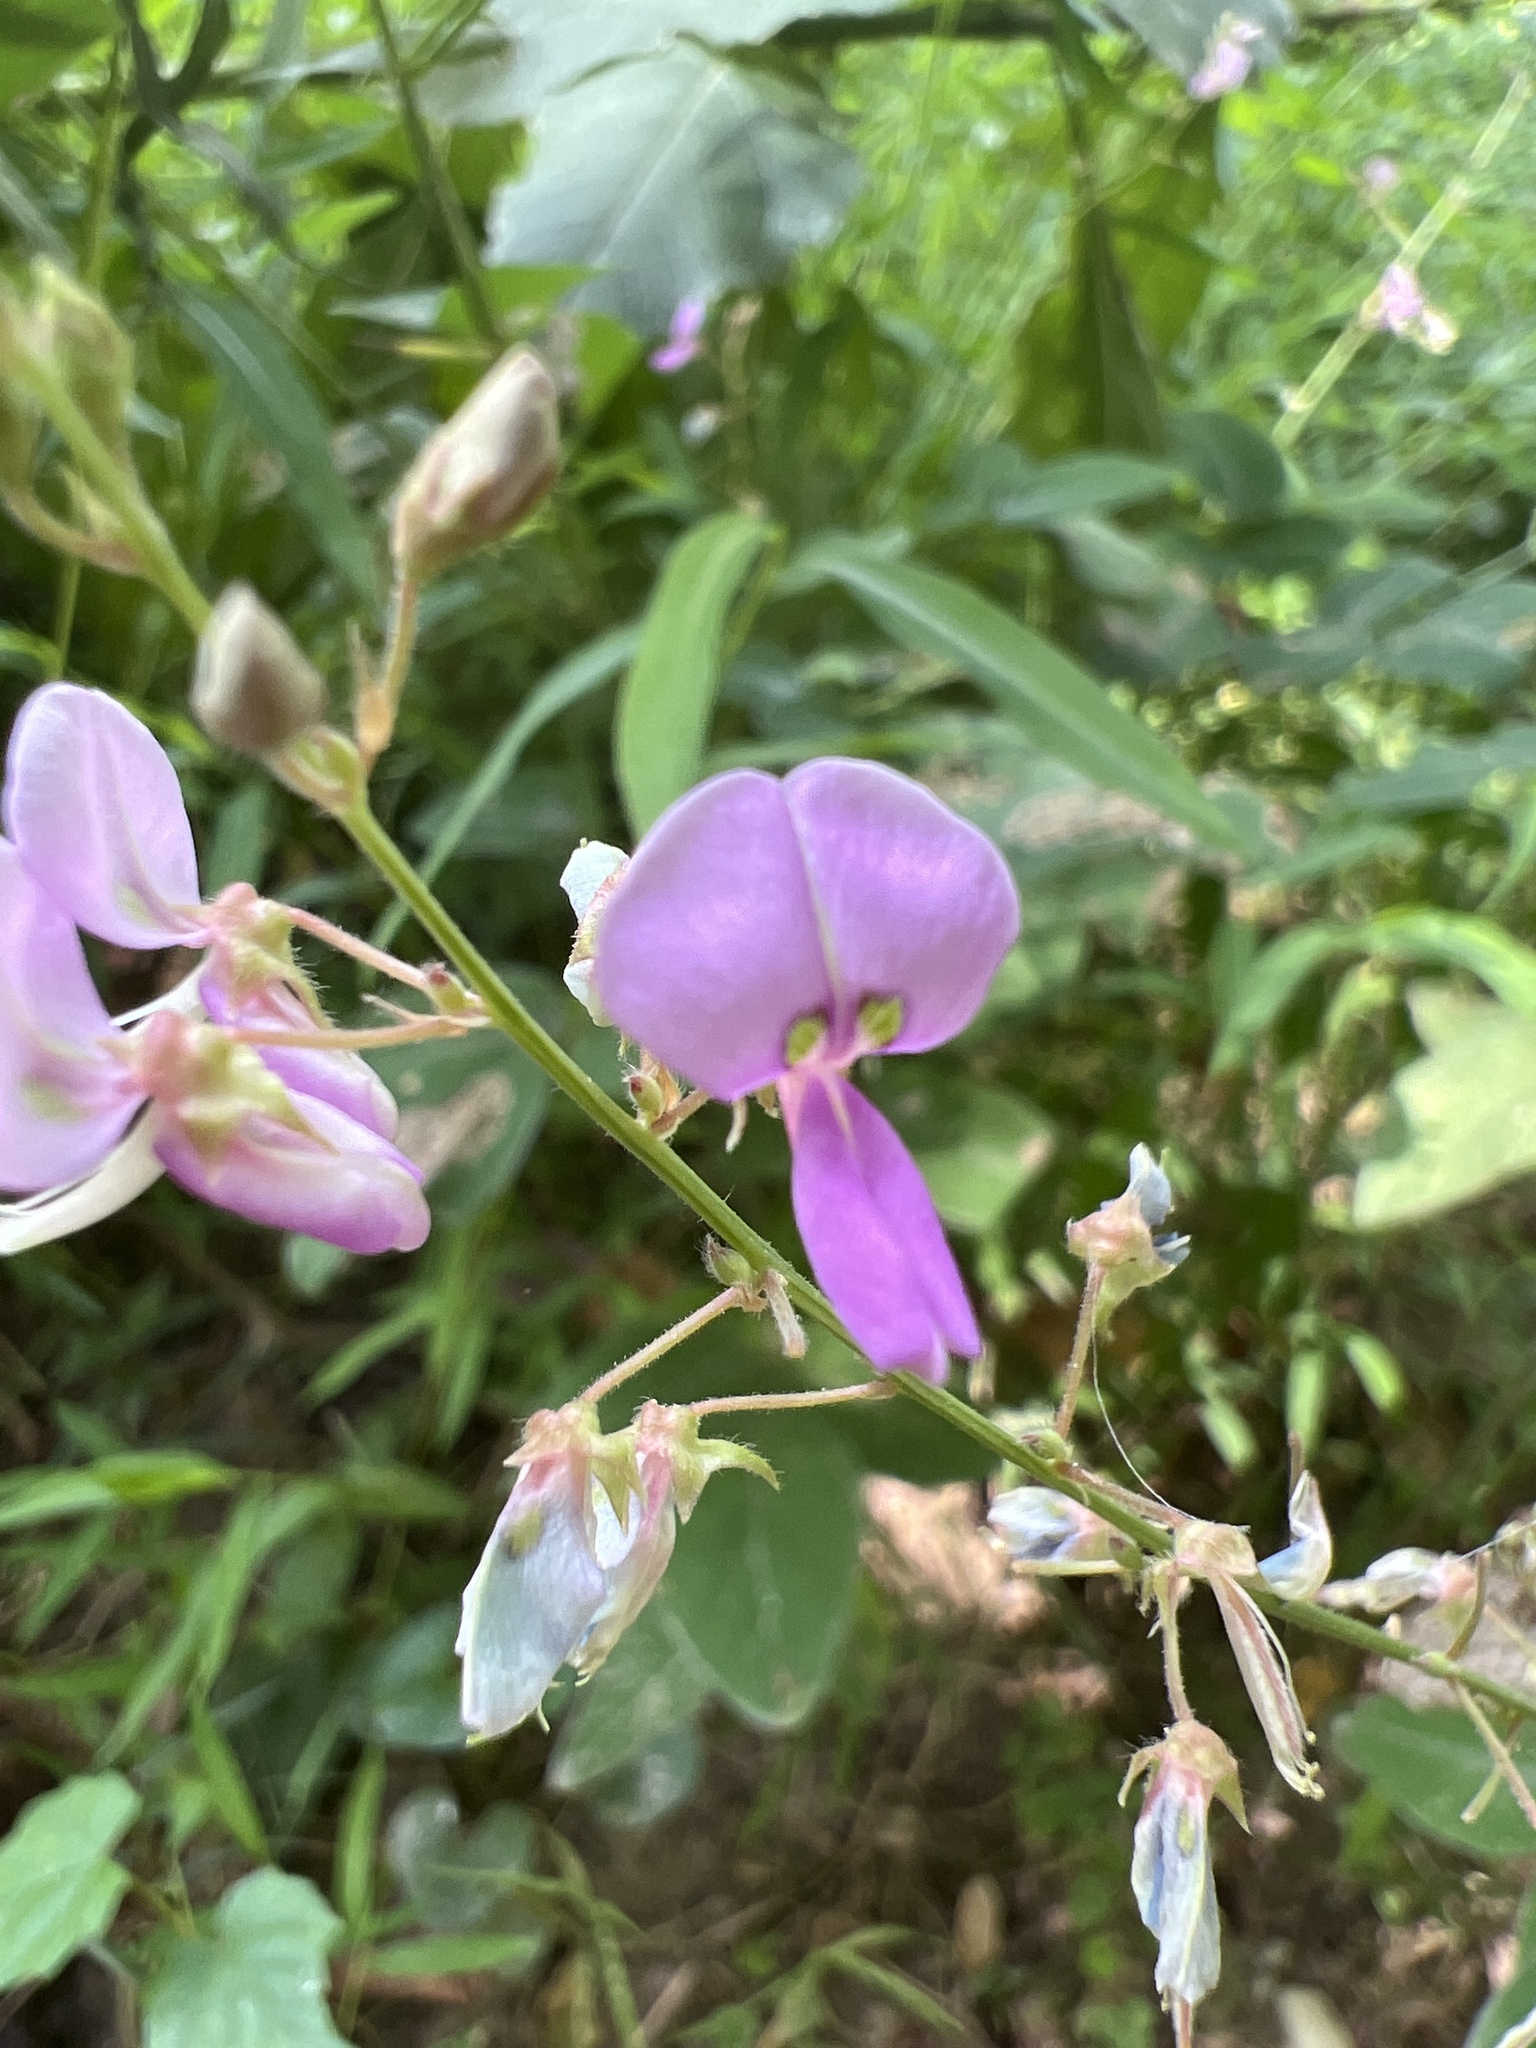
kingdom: Plantae
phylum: Tracheophyta
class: Magnoliopsida
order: Fabales
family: Fabaceae
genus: Desmodium
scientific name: Desmodium
